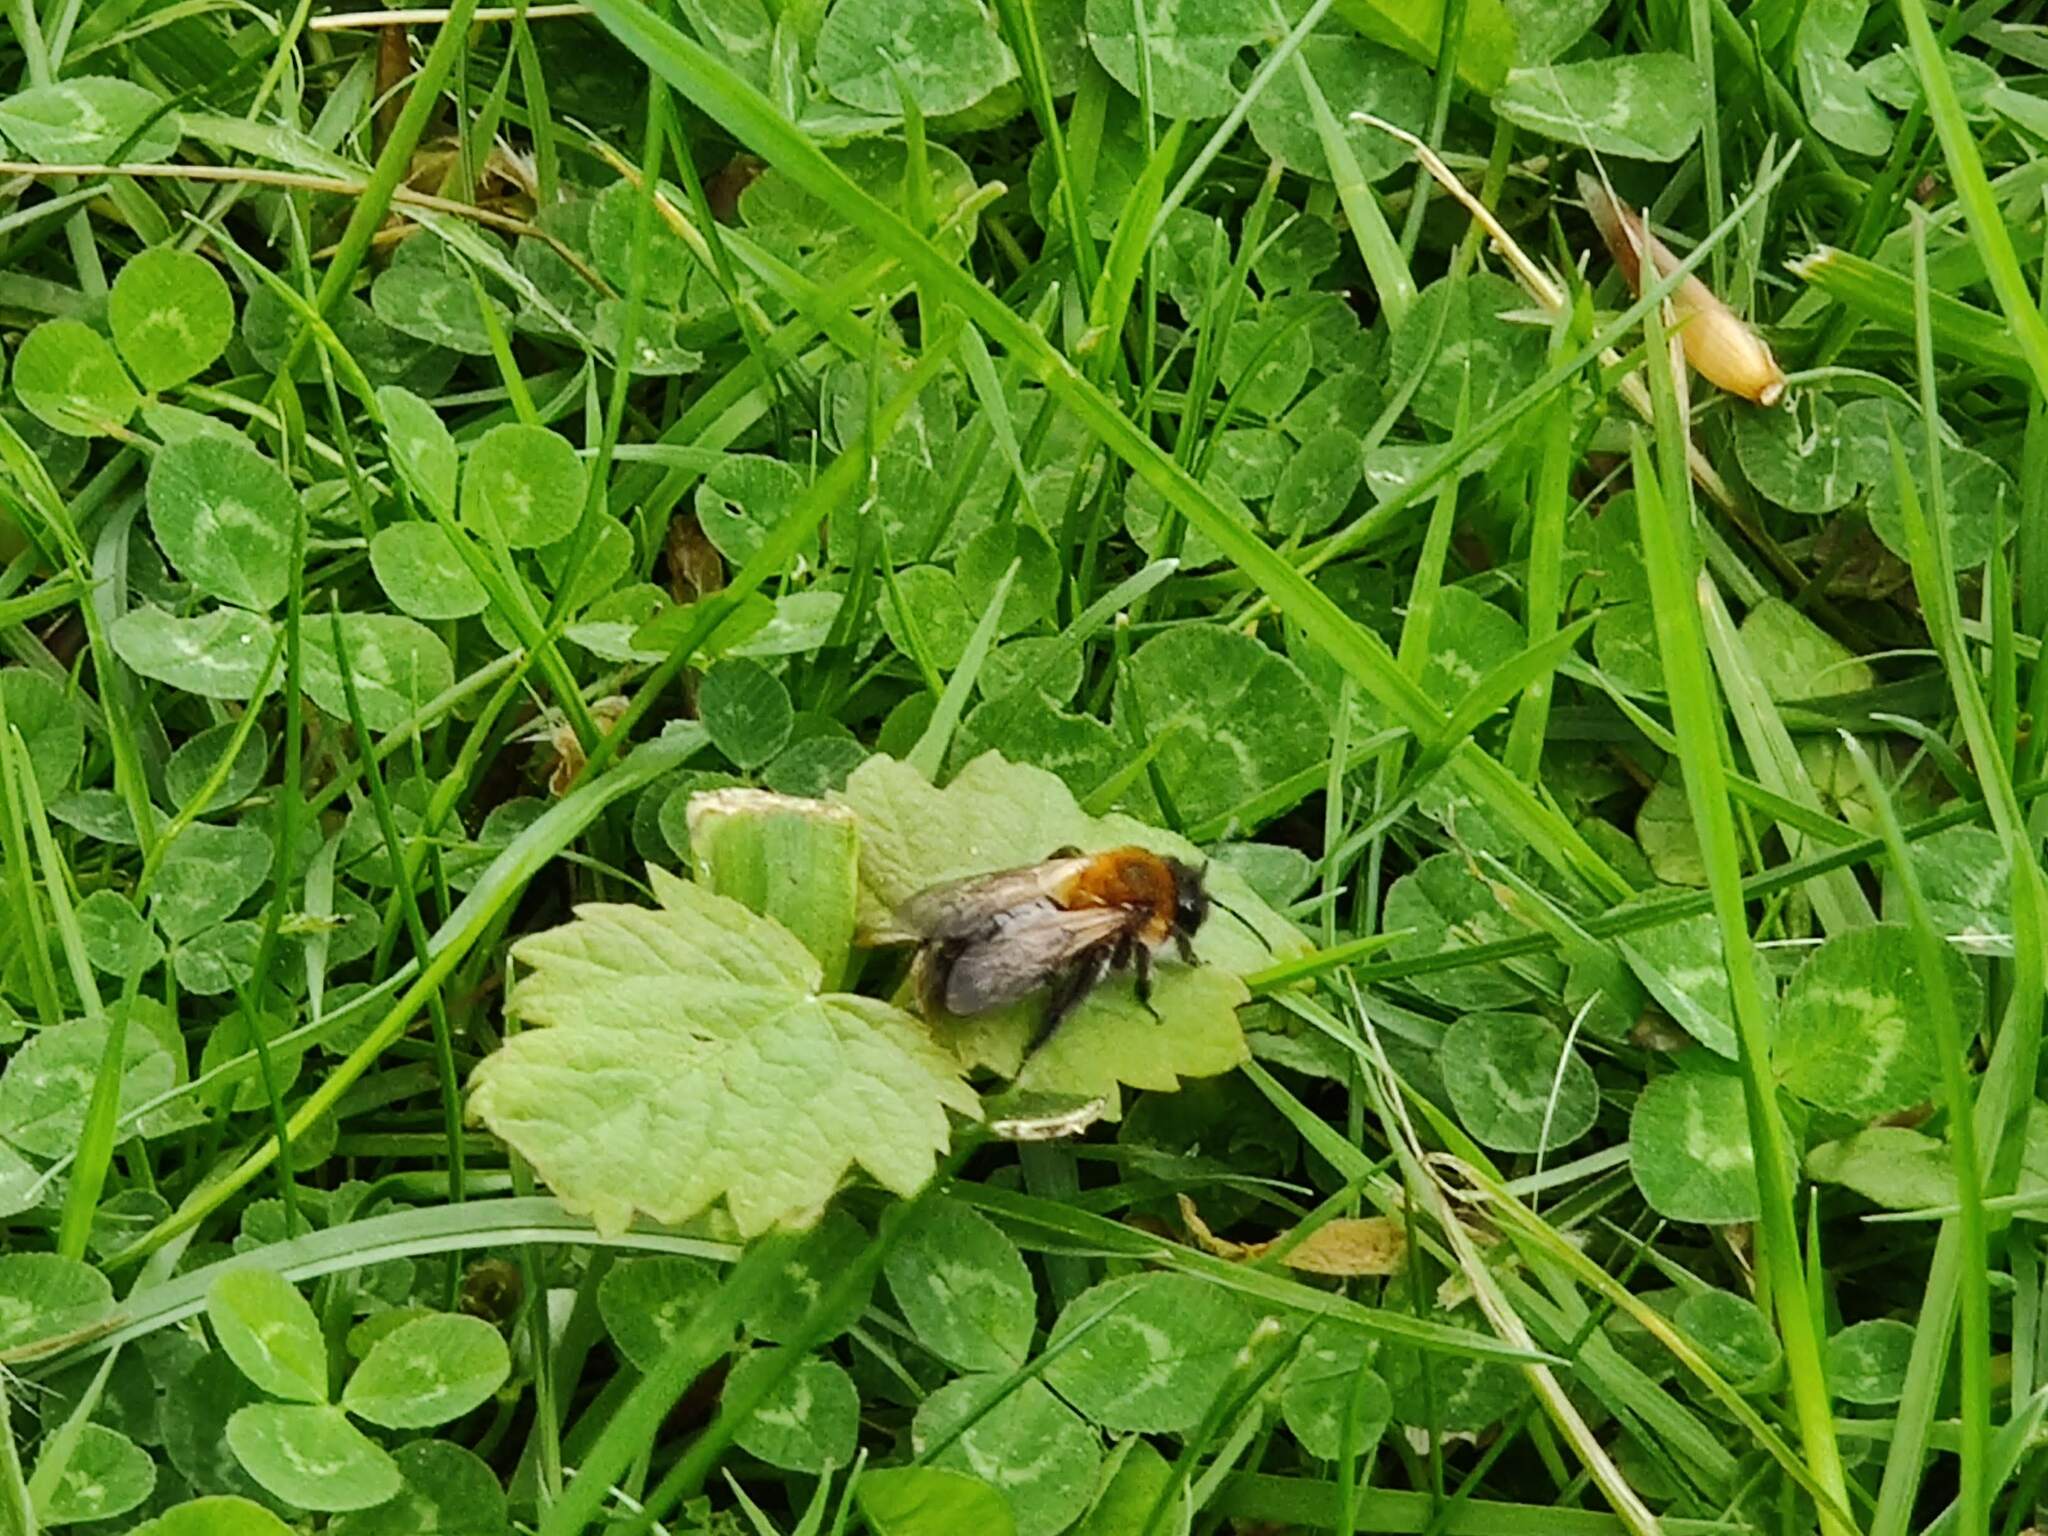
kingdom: Animalia
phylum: Arthropoda
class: Insecta
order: Hymenoptera
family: Andrenidae
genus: Andrena
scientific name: Andrena nitida
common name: Grey-patched mining bee
